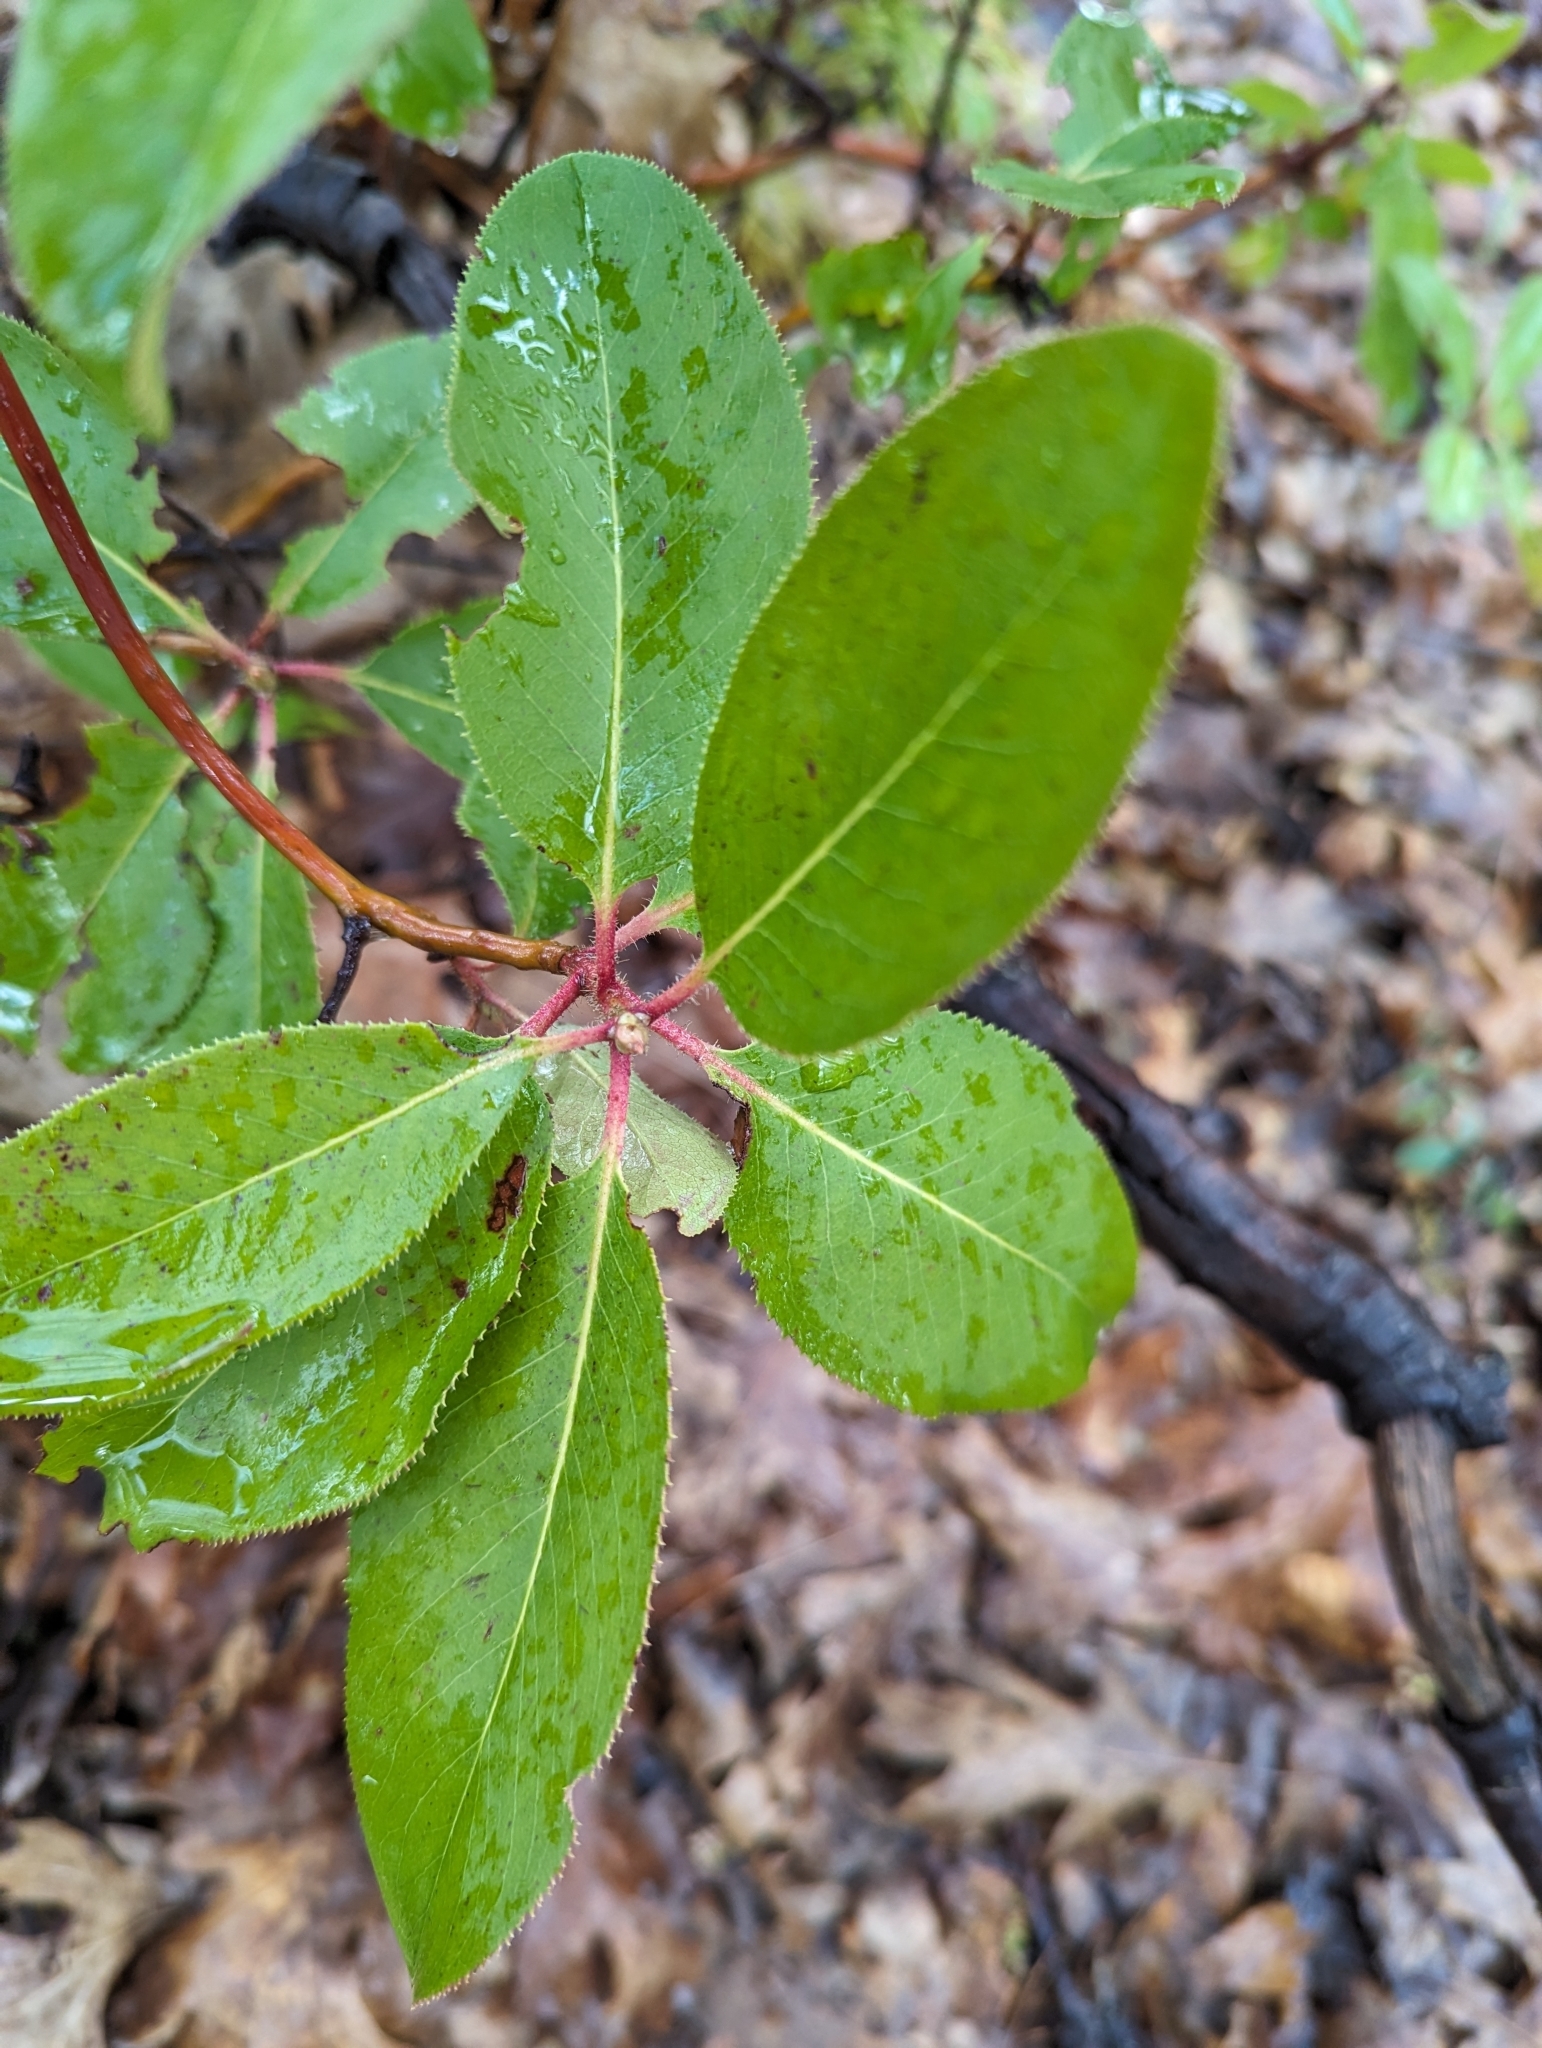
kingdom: Plantae
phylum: Tracheophyta
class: Magnoliopsida
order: Ericales
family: Ericaceae
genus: Arbutus
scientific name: Arbutus menziesii
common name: Pacific madrone
